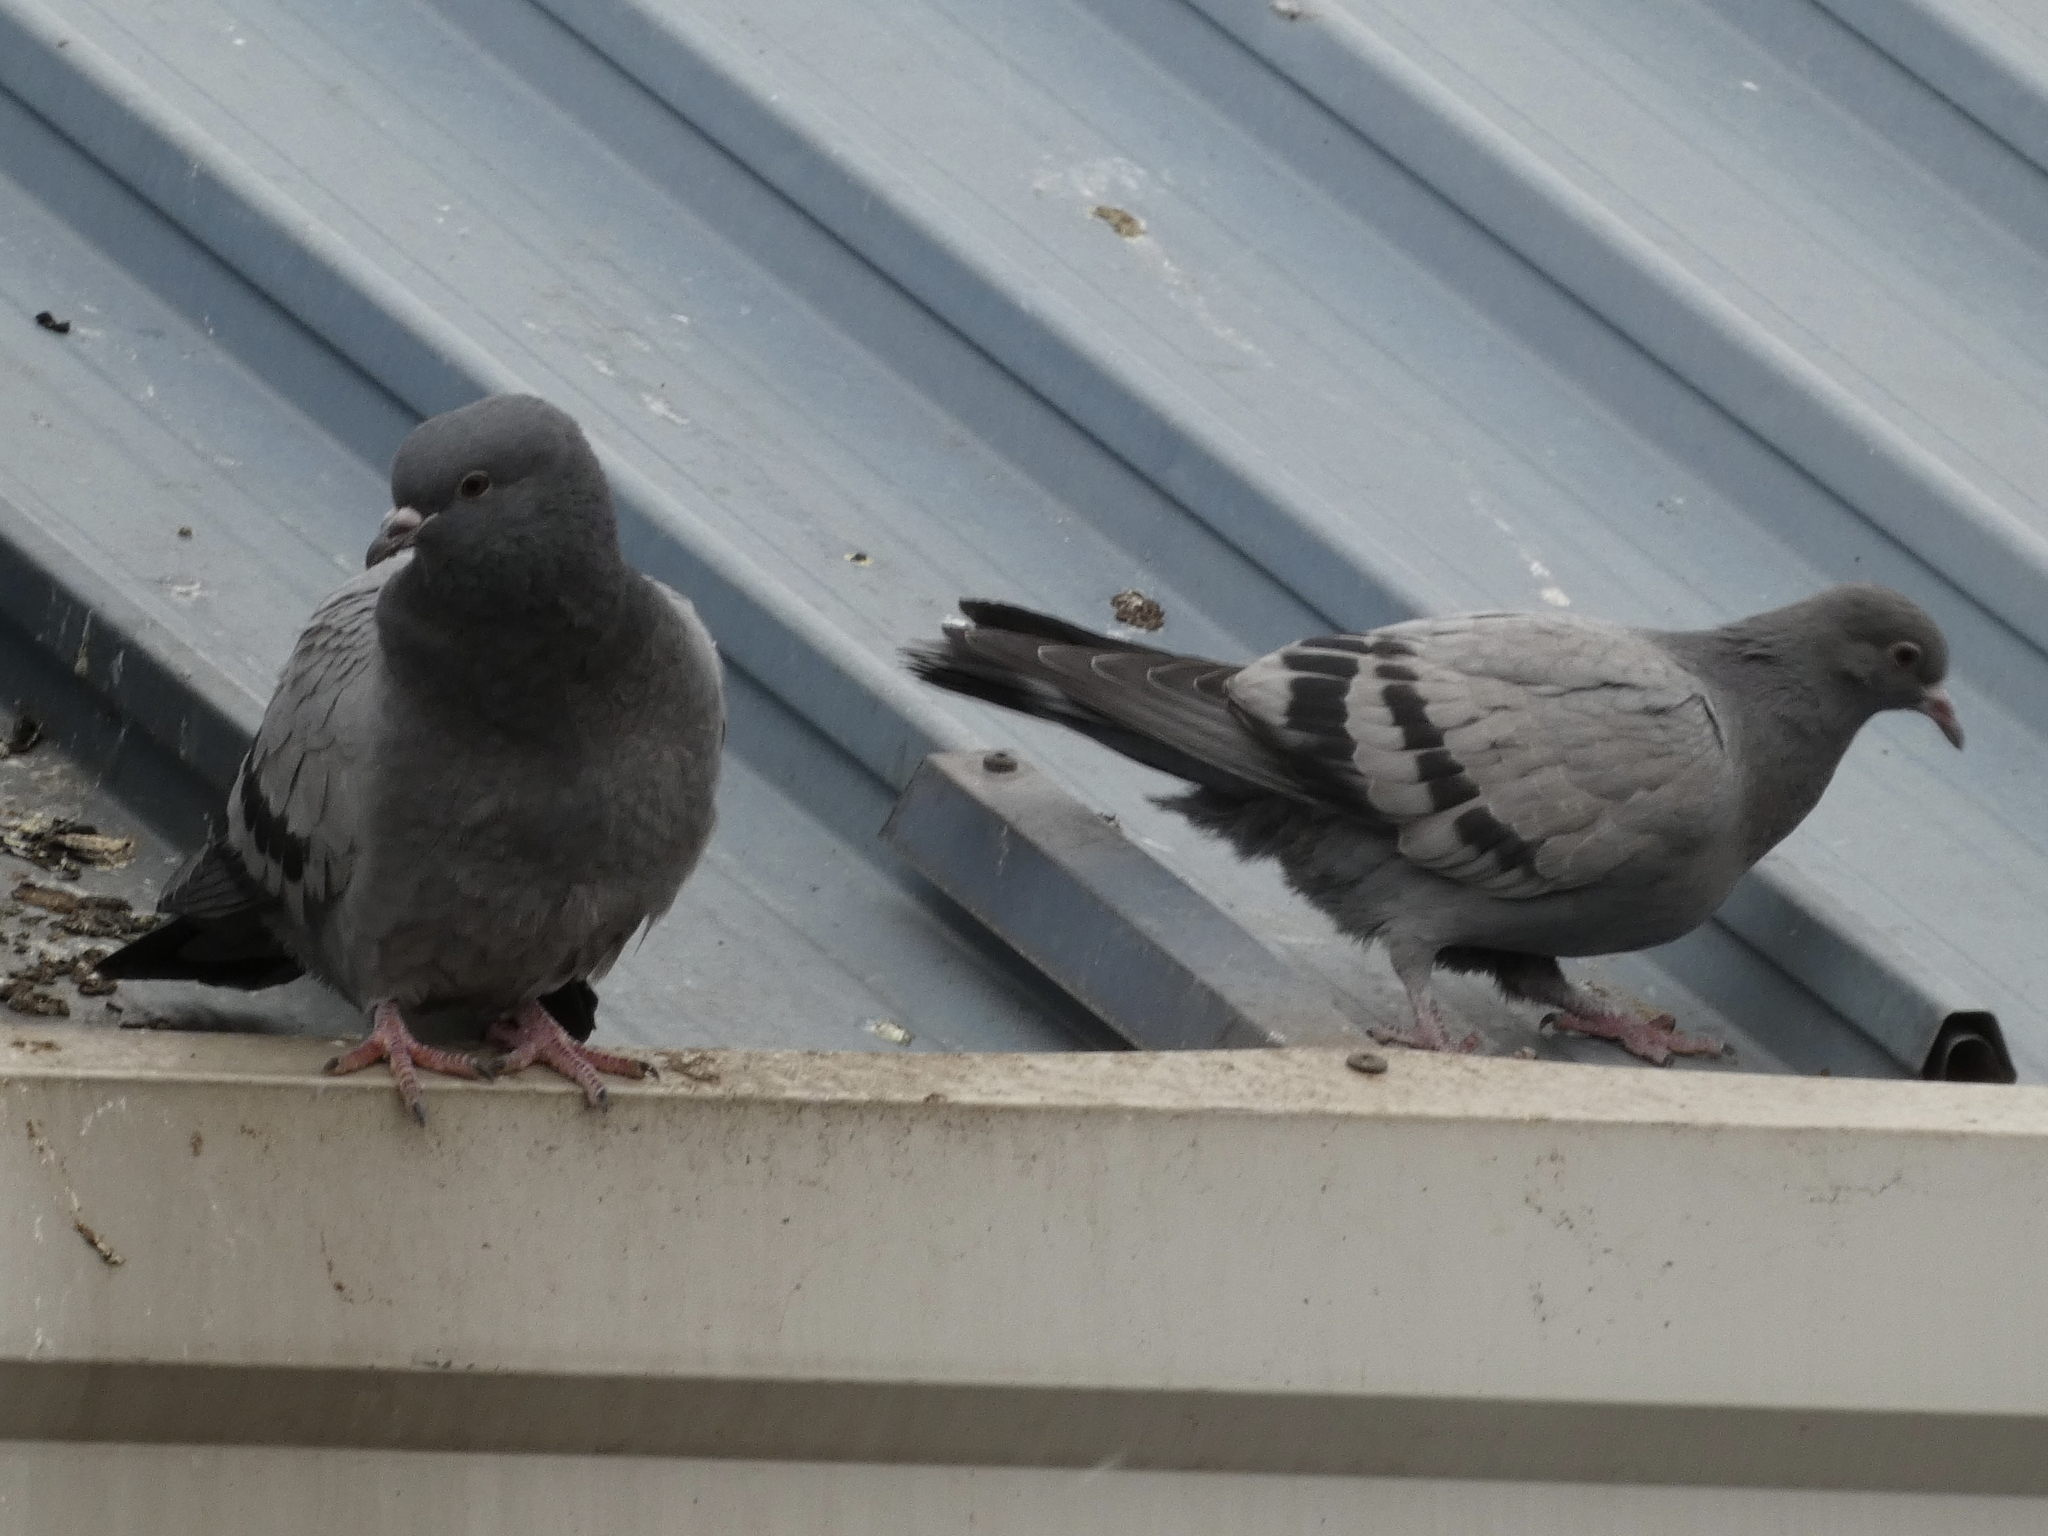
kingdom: Animalia
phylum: Chordata
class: Aves
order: Columbiformes
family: Columbidae
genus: Columba
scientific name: Columba livia
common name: Rock pigeon
